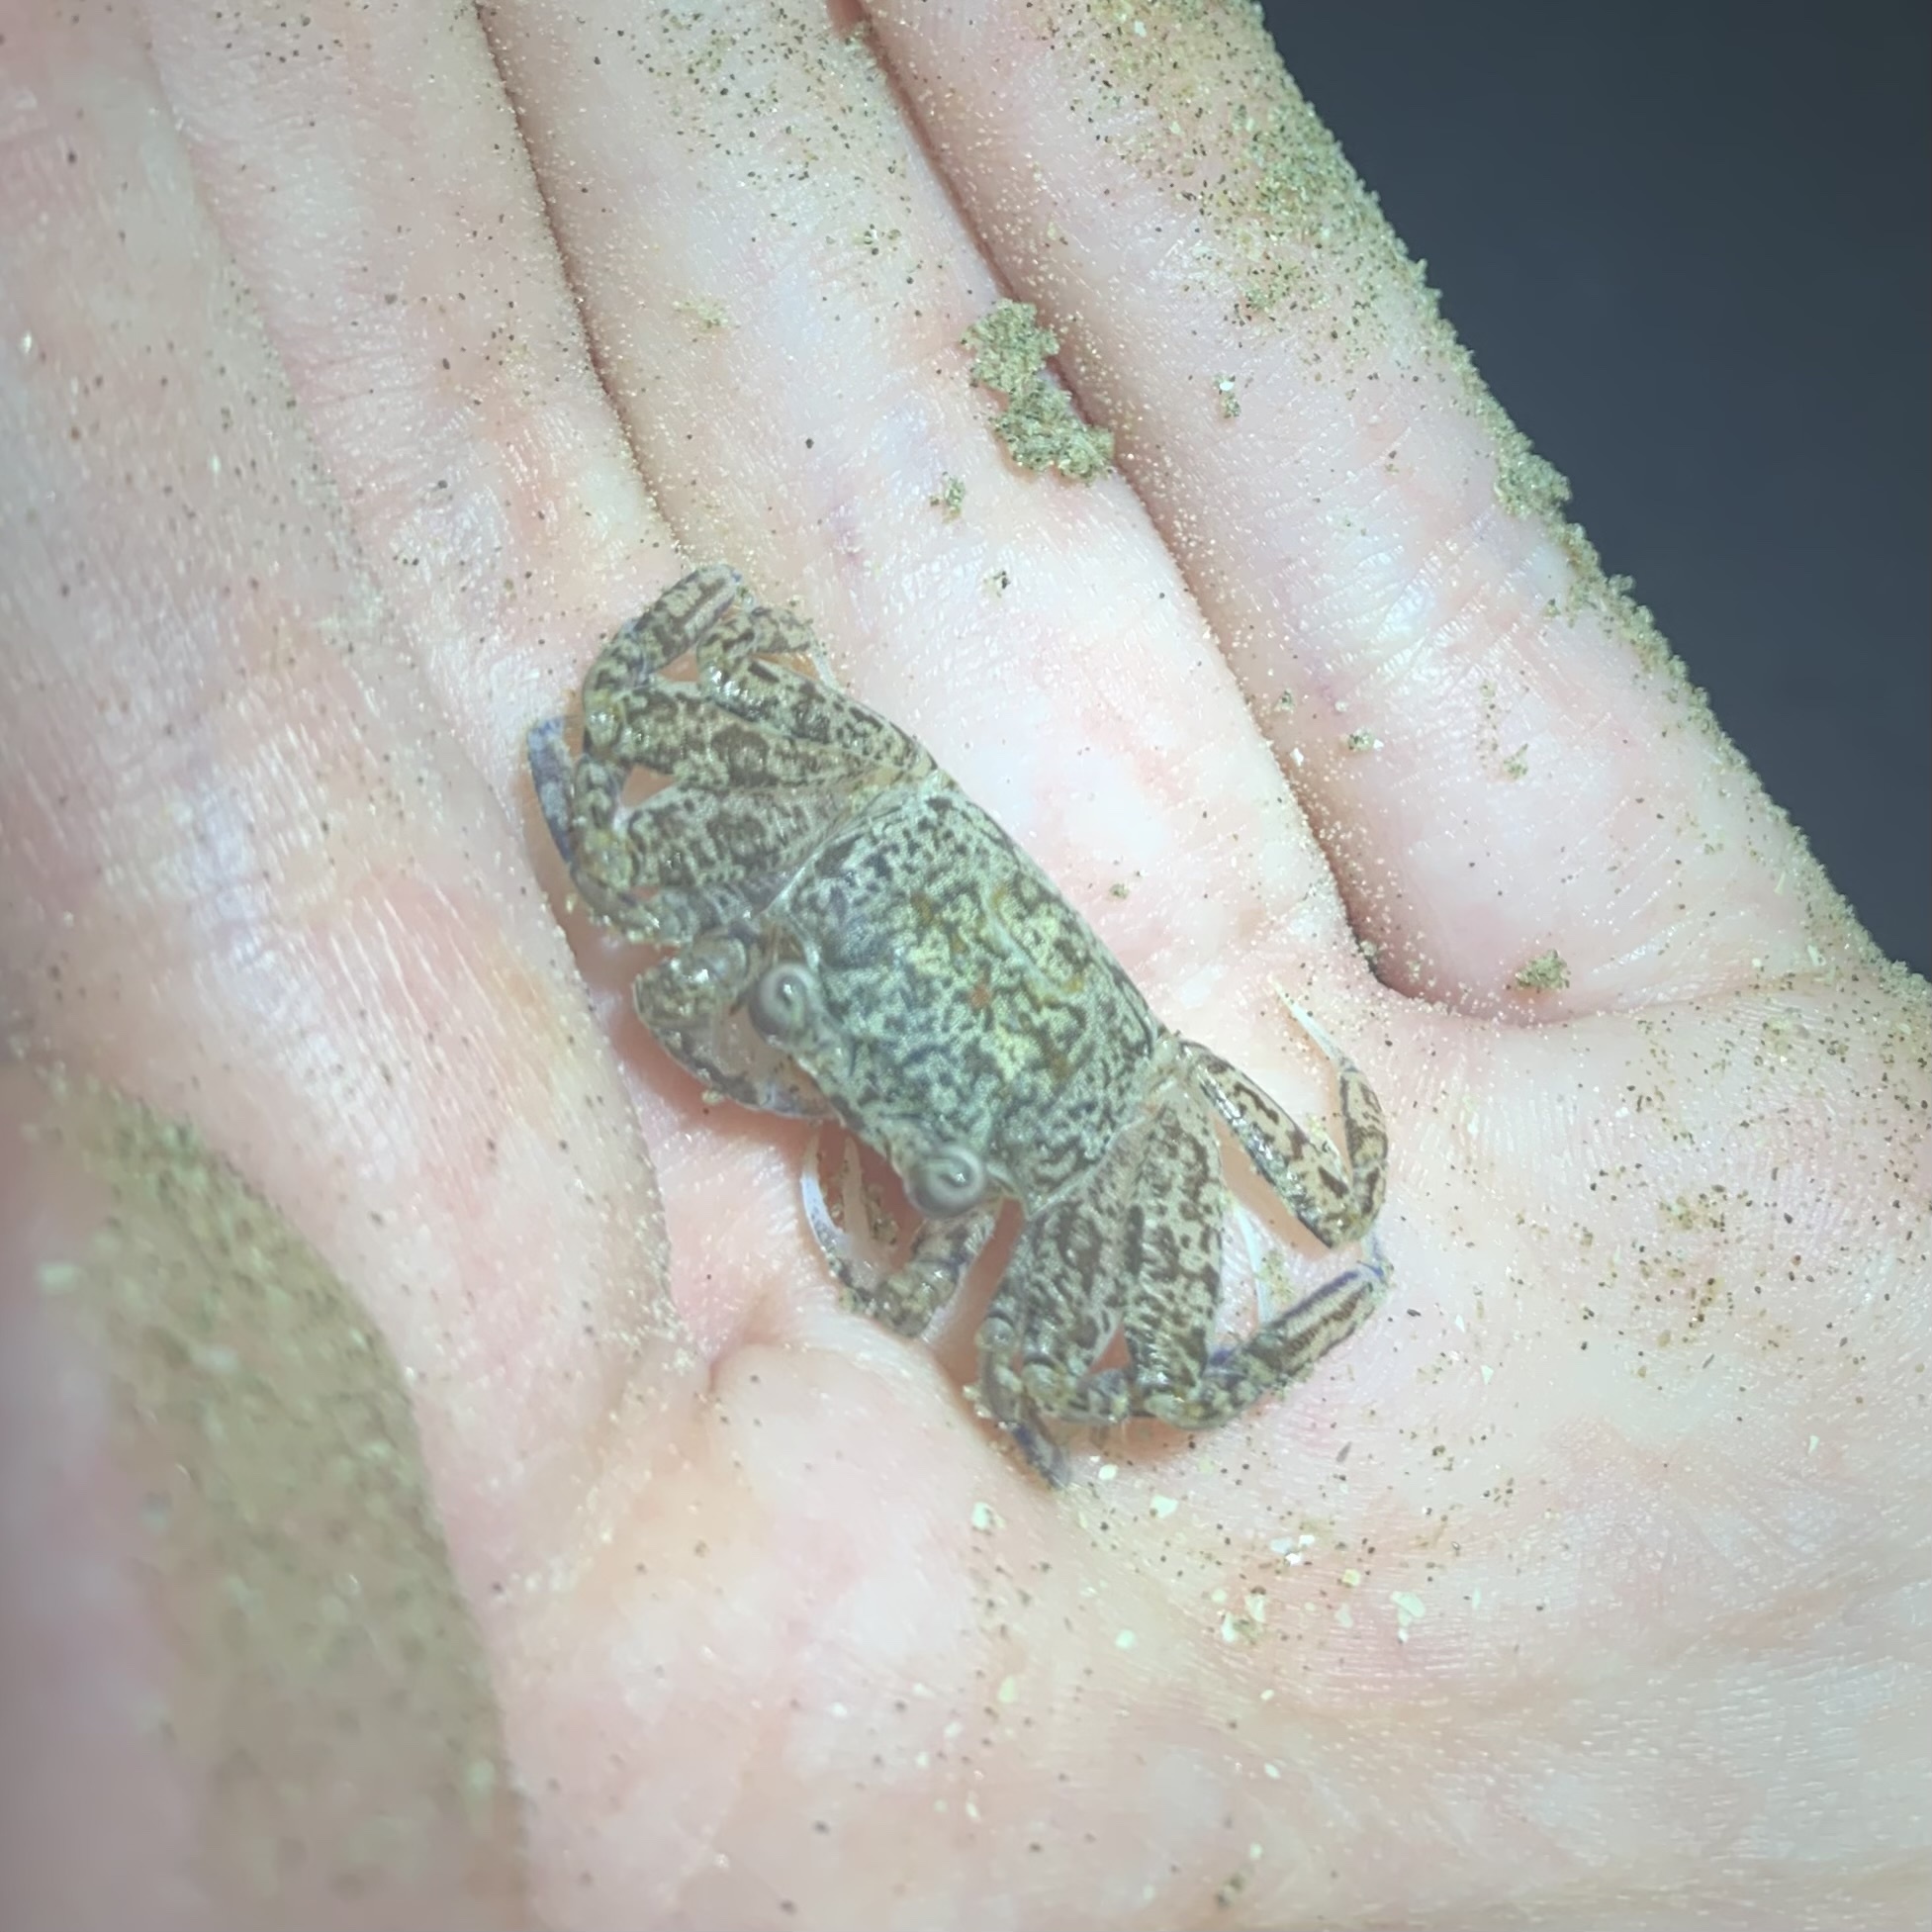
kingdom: Animalia
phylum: Arthropoda
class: Malacostraca
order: Decapoda
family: Ocypodidae
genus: Ocypode
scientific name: Ocypode quadrata
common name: Ghost crab
